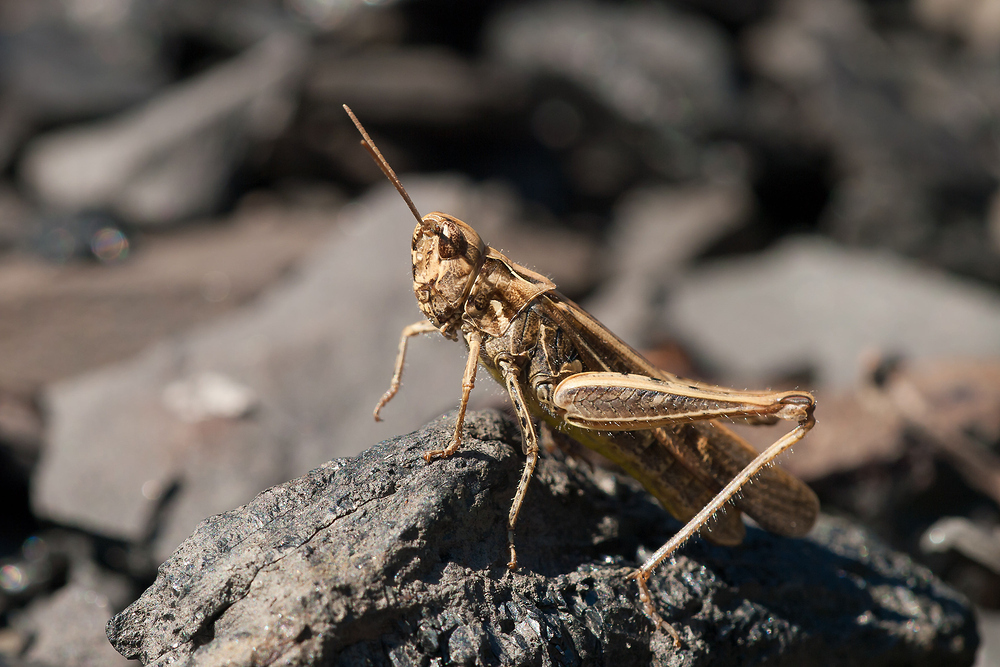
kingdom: Animalia
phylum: Arthropoda
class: Insecta
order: Orthoptera
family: Acrididae
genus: Chorthippus
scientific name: Chorthippus brunneus
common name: Field grasshopper
